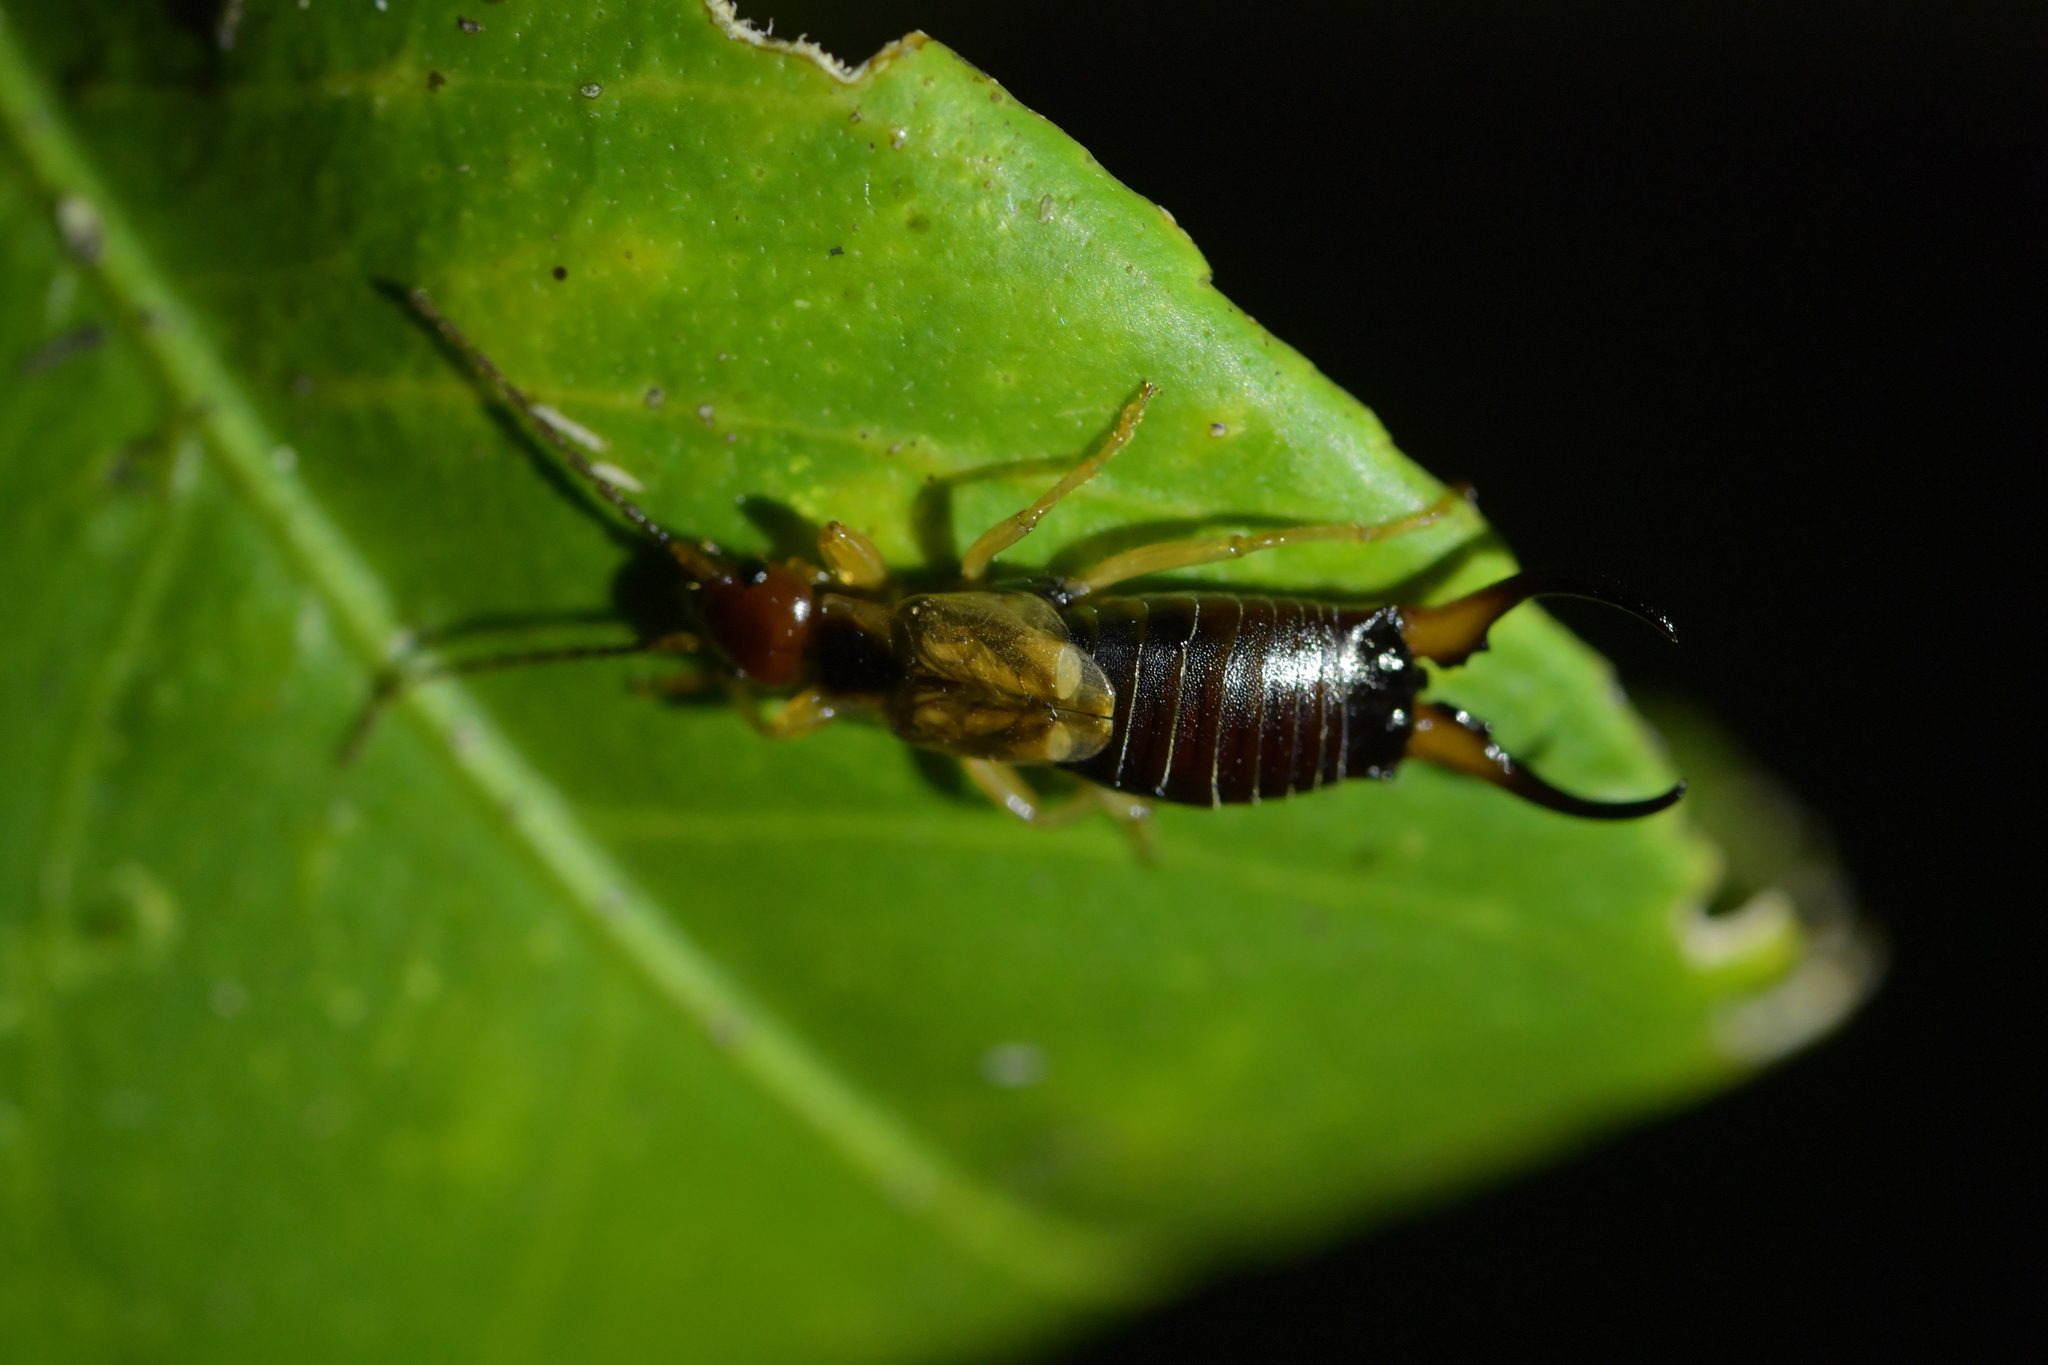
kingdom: Animalia
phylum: Arthropoda
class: Insecta
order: Dermaptera
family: Forficulidae
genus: Forficula
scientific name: Forficula
